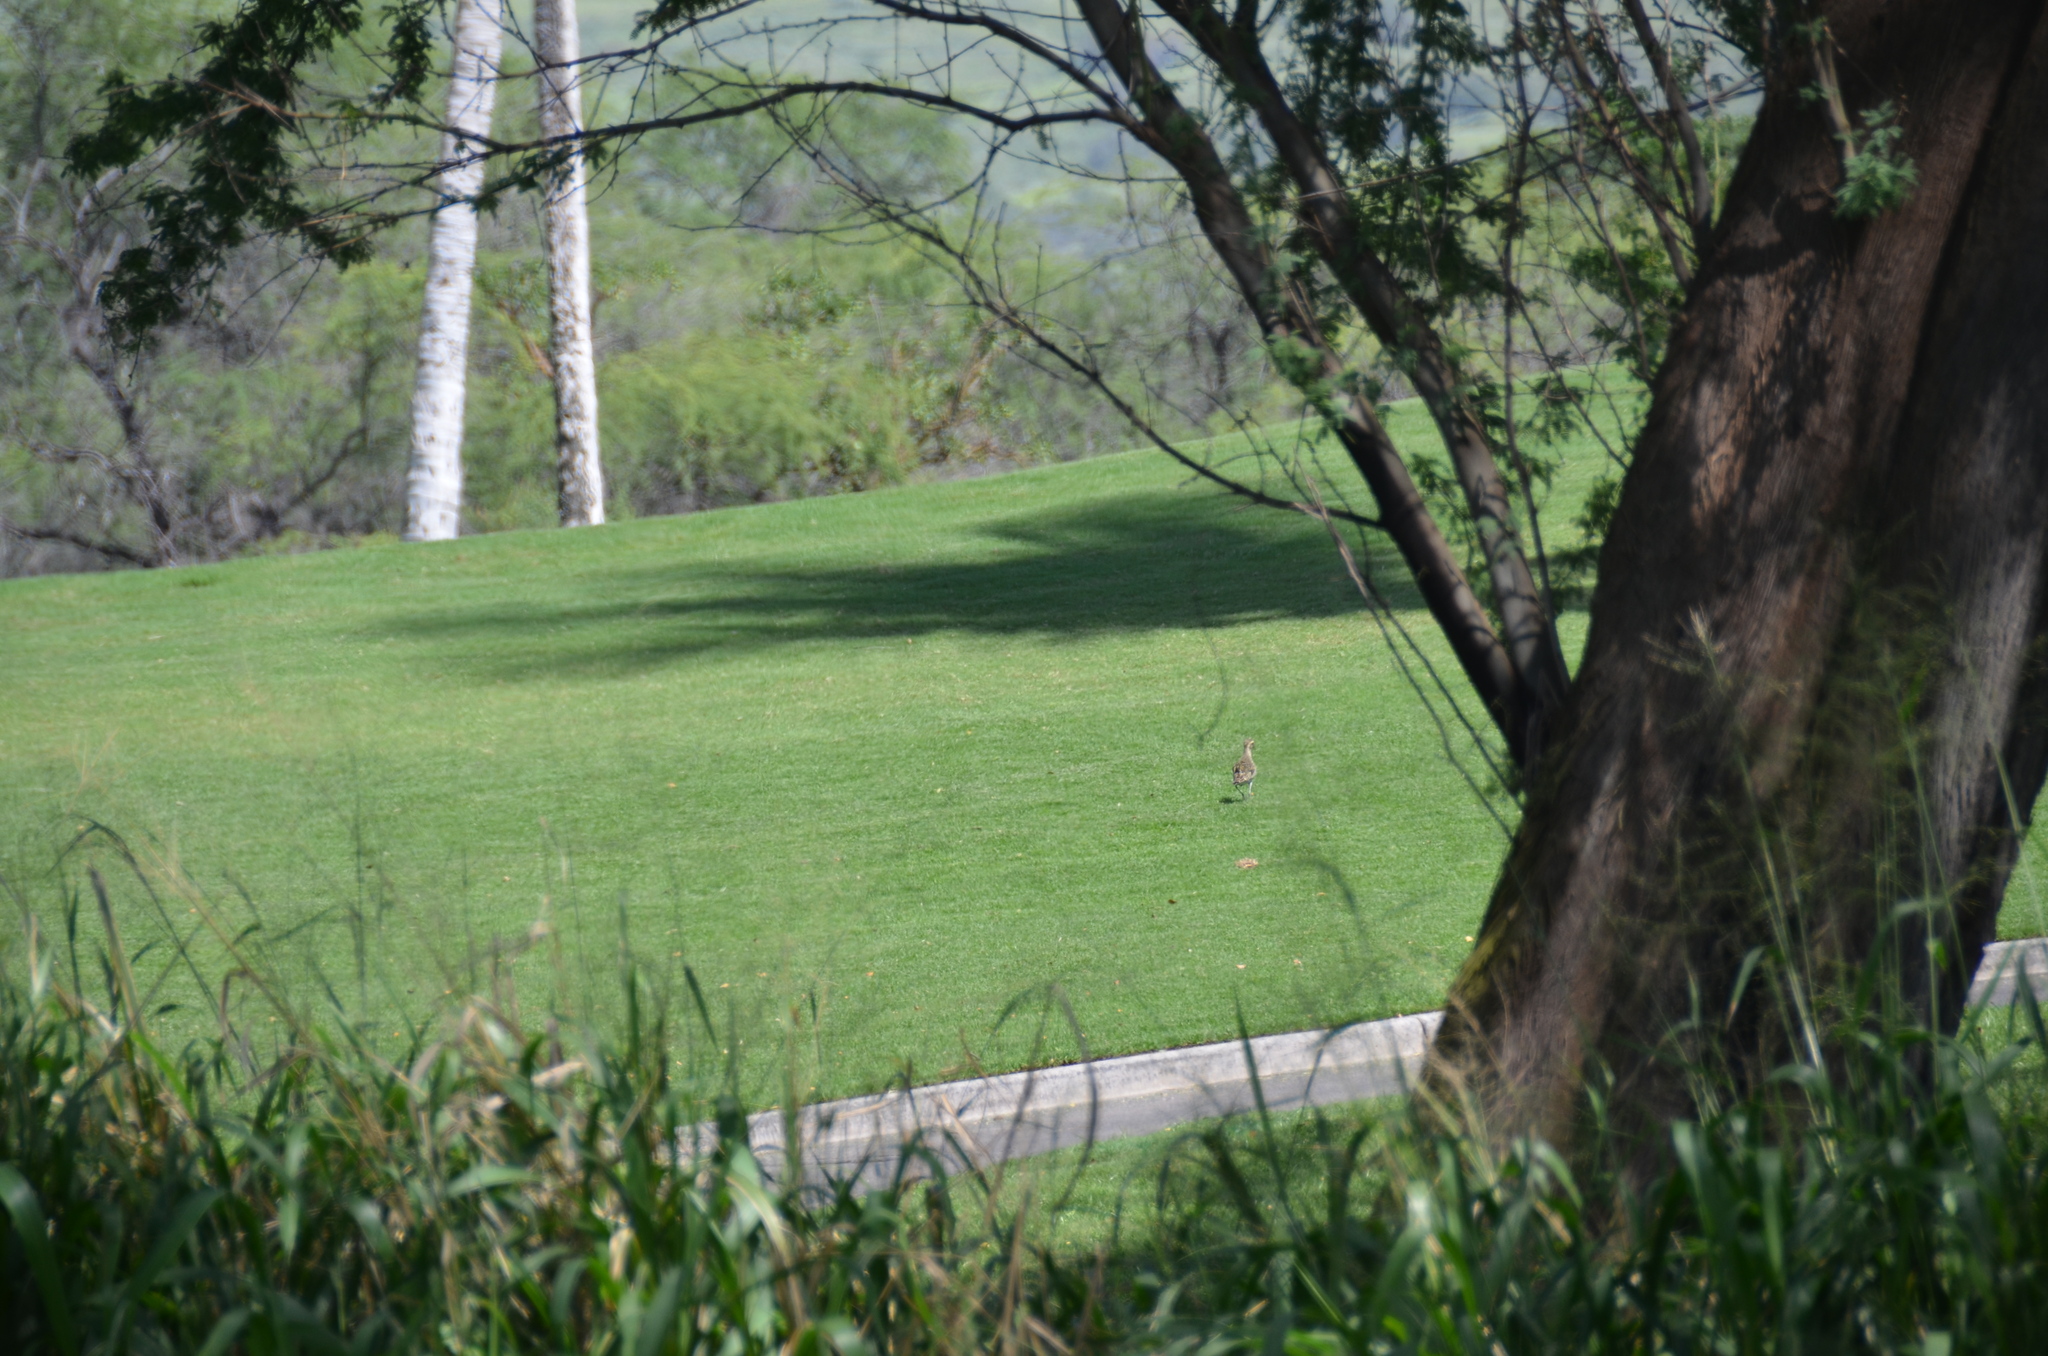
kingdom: Animalia
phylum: Chordata
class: Aves
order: Charadriiformes
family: Charadriidae
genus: Pluvialis
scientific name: Pluvialis fulva
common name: Pacific golden plover
